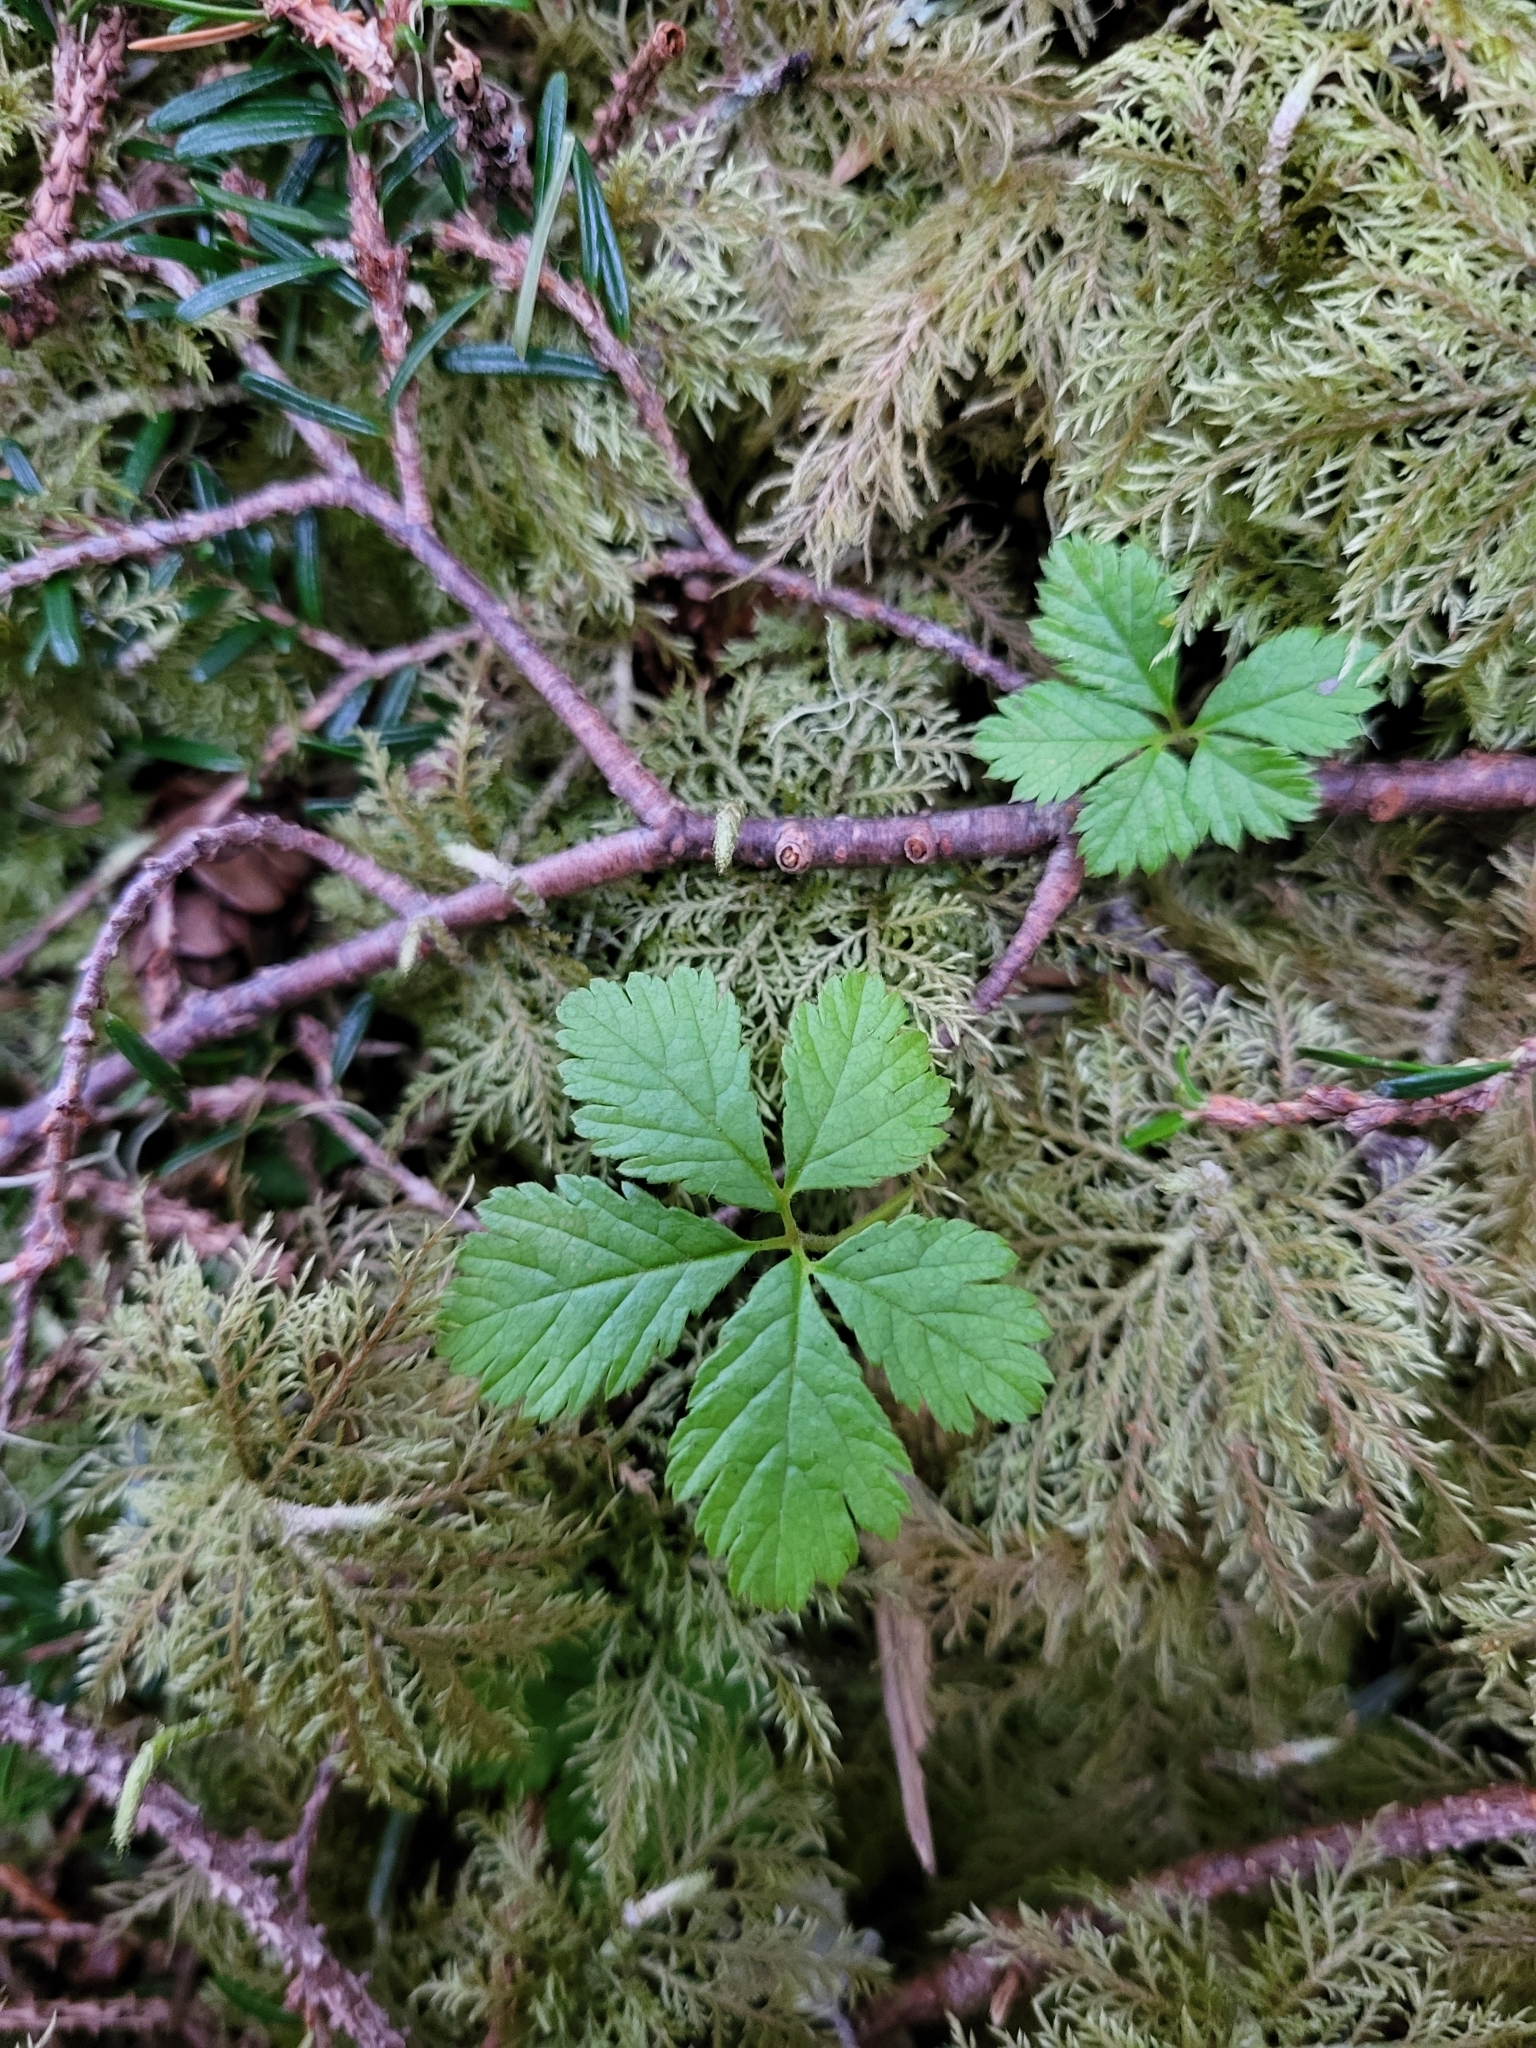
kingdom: Plantae
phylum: Tracheophyta
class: Magnoliopsida
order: Rosales
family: Rosaceae
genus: Rubus
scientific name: Rubus pedatus
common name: Creeping raspberry
